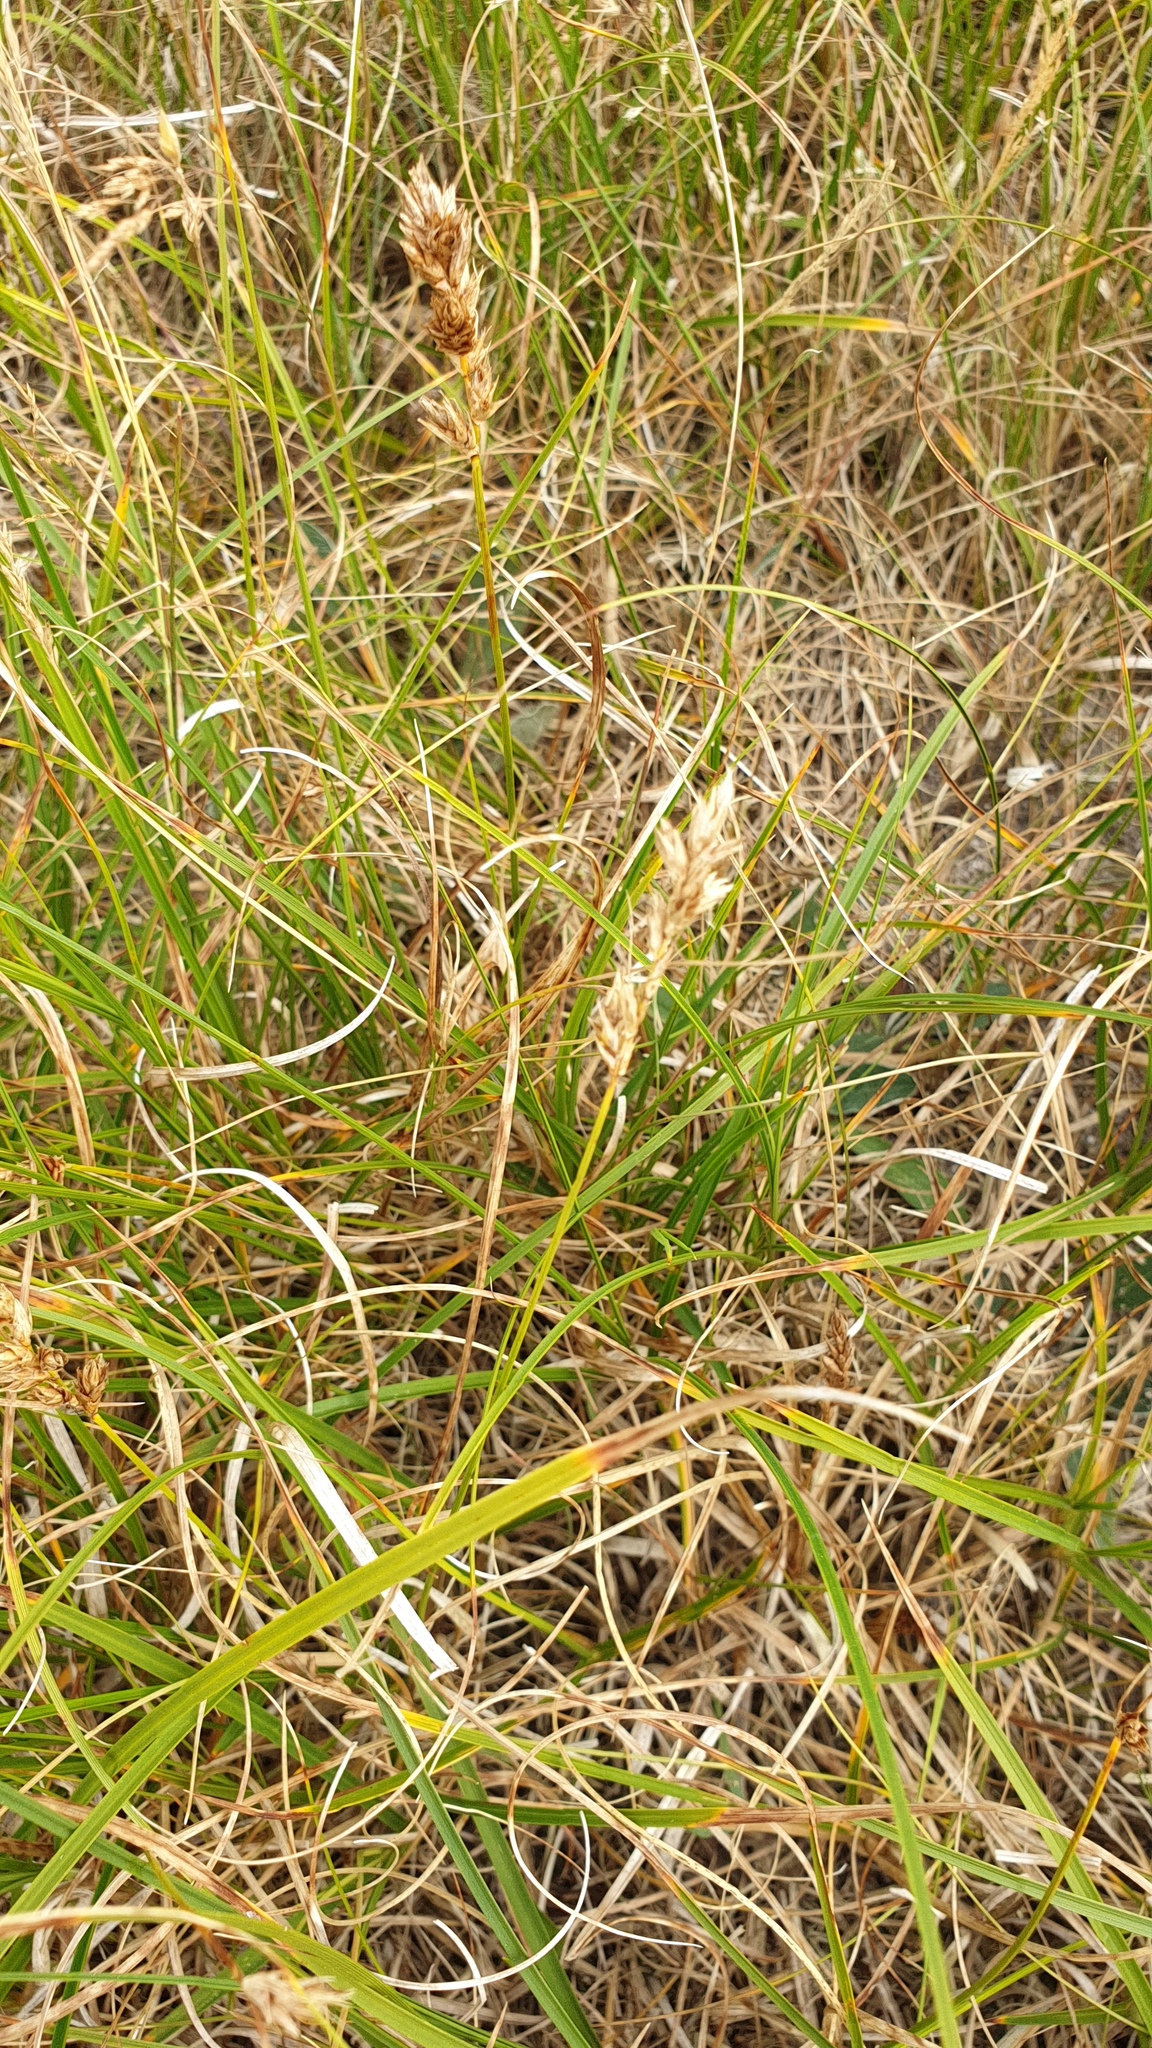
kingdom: Plantae
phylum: Tracheophyta
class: Liliopsida
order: Poales
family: Cyperaceae
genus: Carex
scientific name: Carex arenaria
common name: Sand sedge
